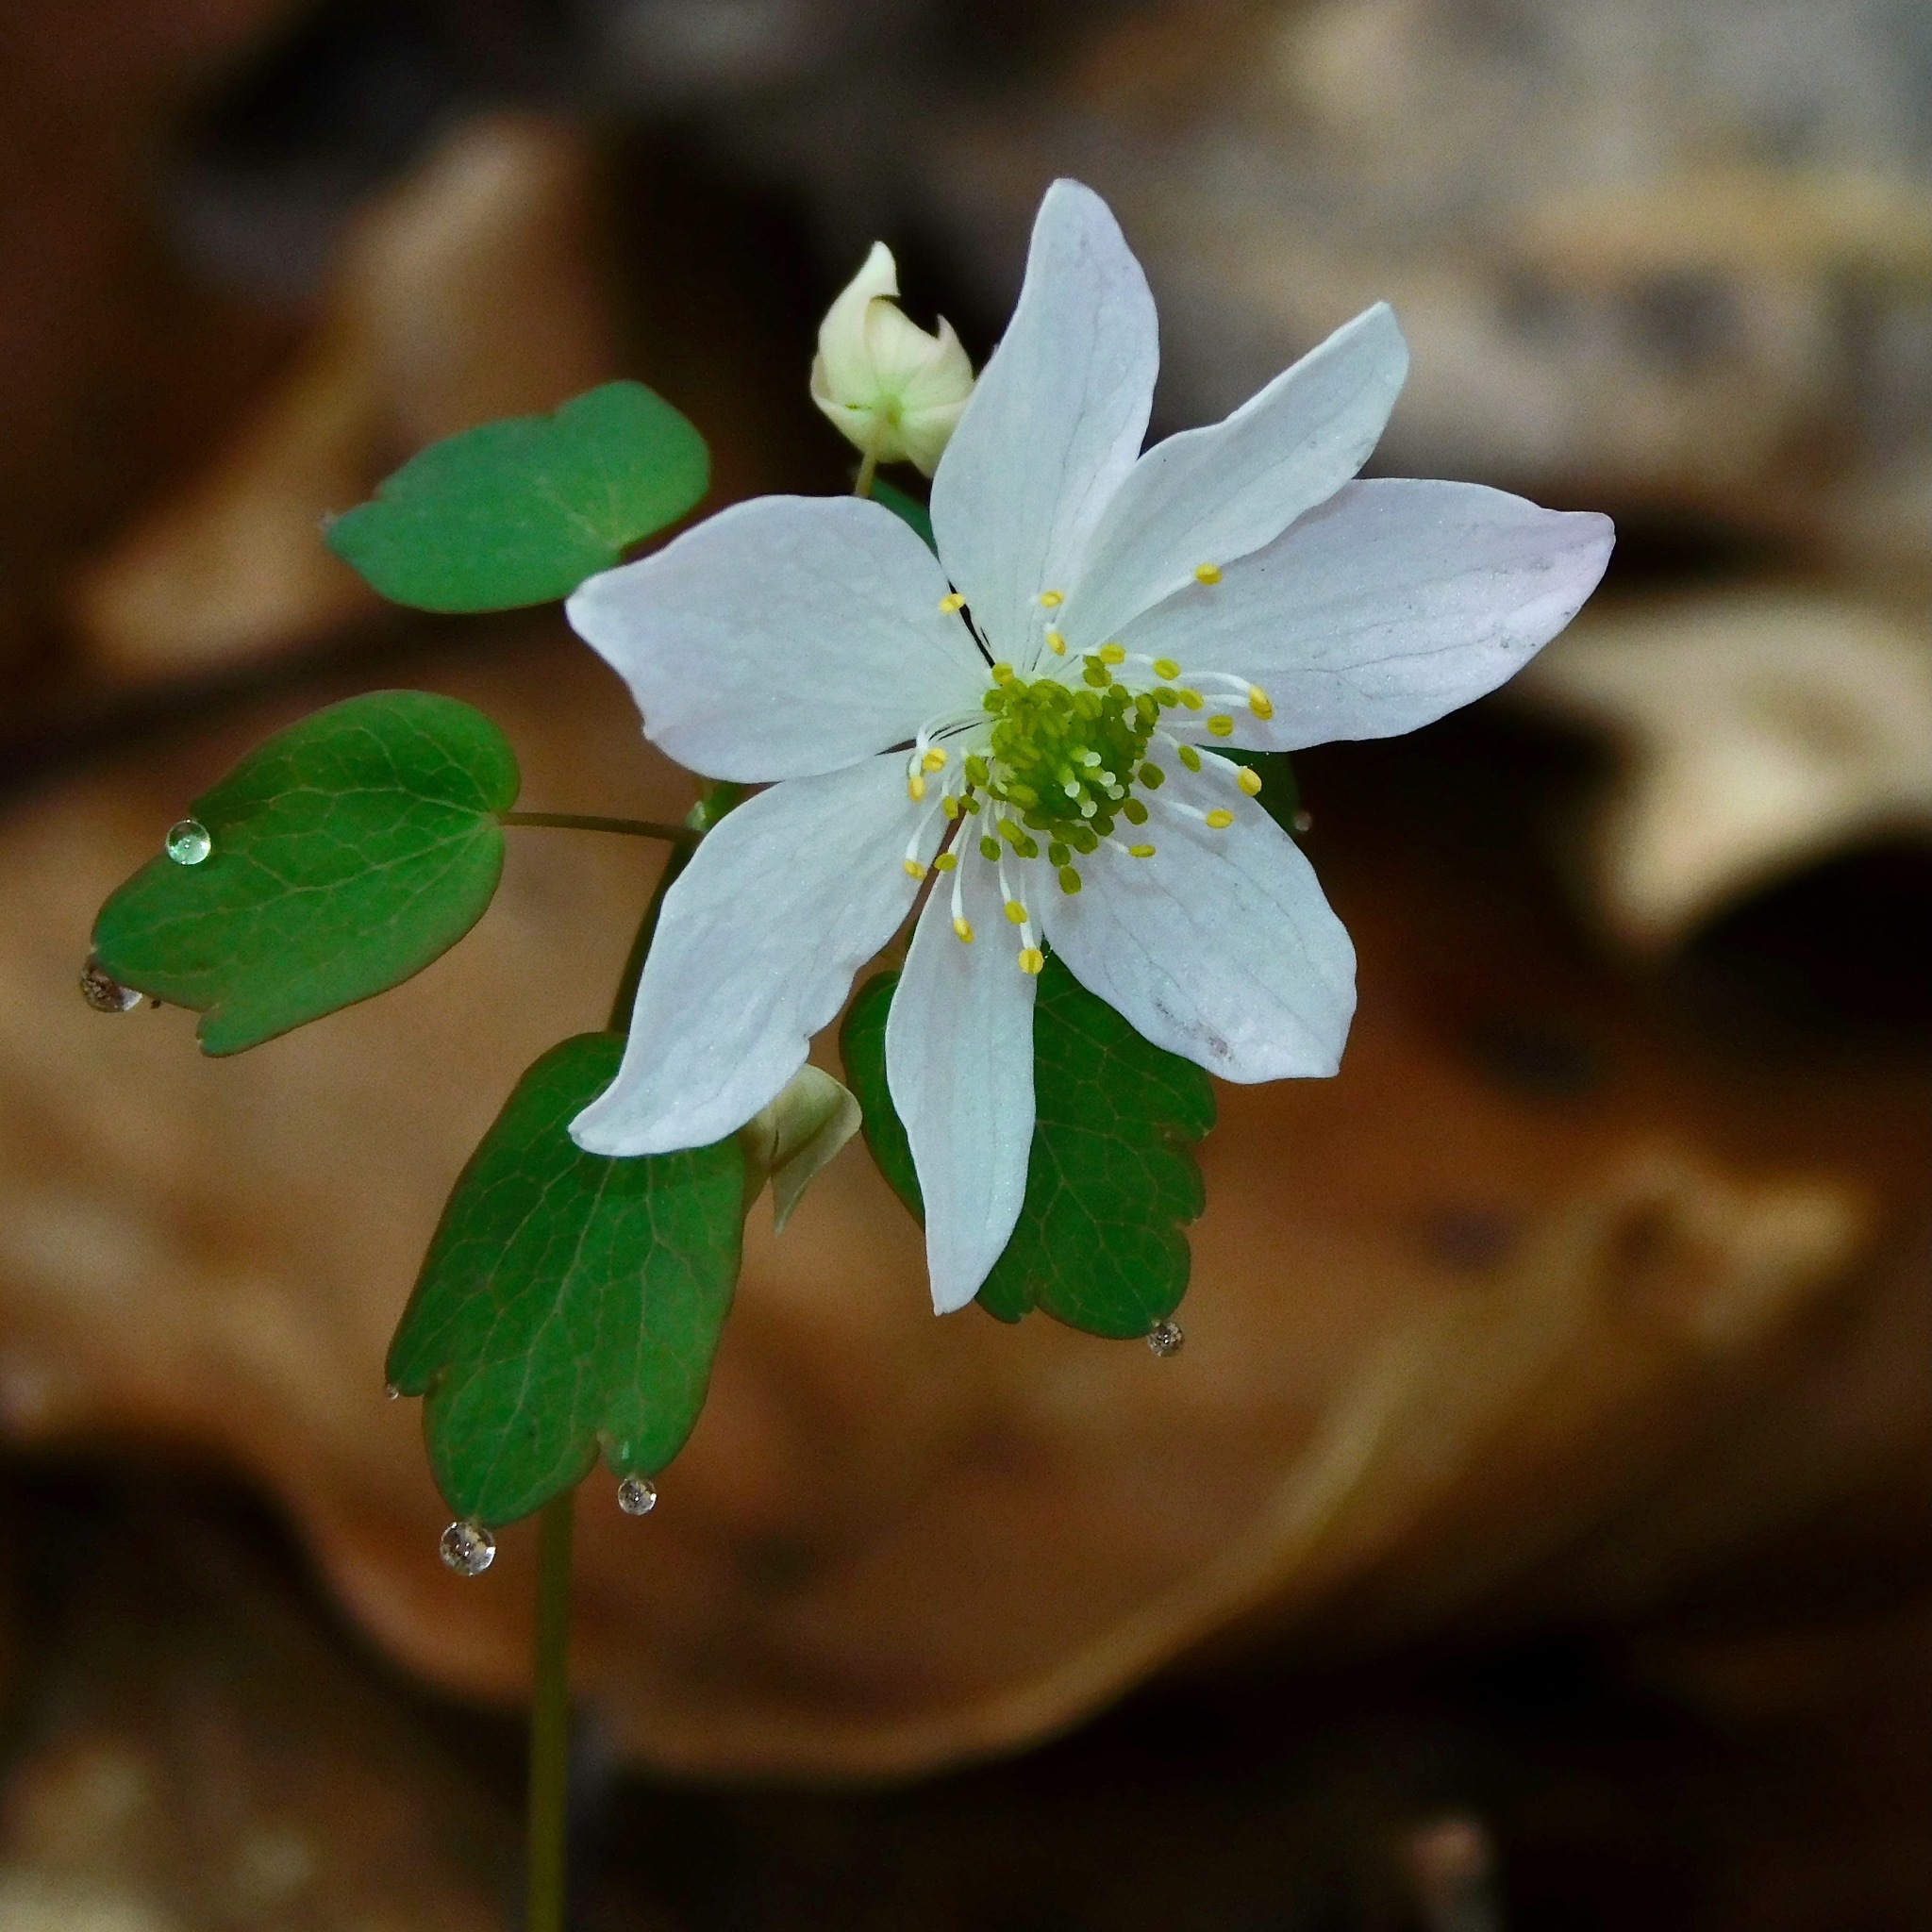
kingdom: Plantae
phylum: Tracheophyta
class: Magnoliopsida
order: Ranunculales
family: Ranunculaceae
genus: Thalictrum
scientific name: Thalictrum thalictroides
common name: Rue-anemone
